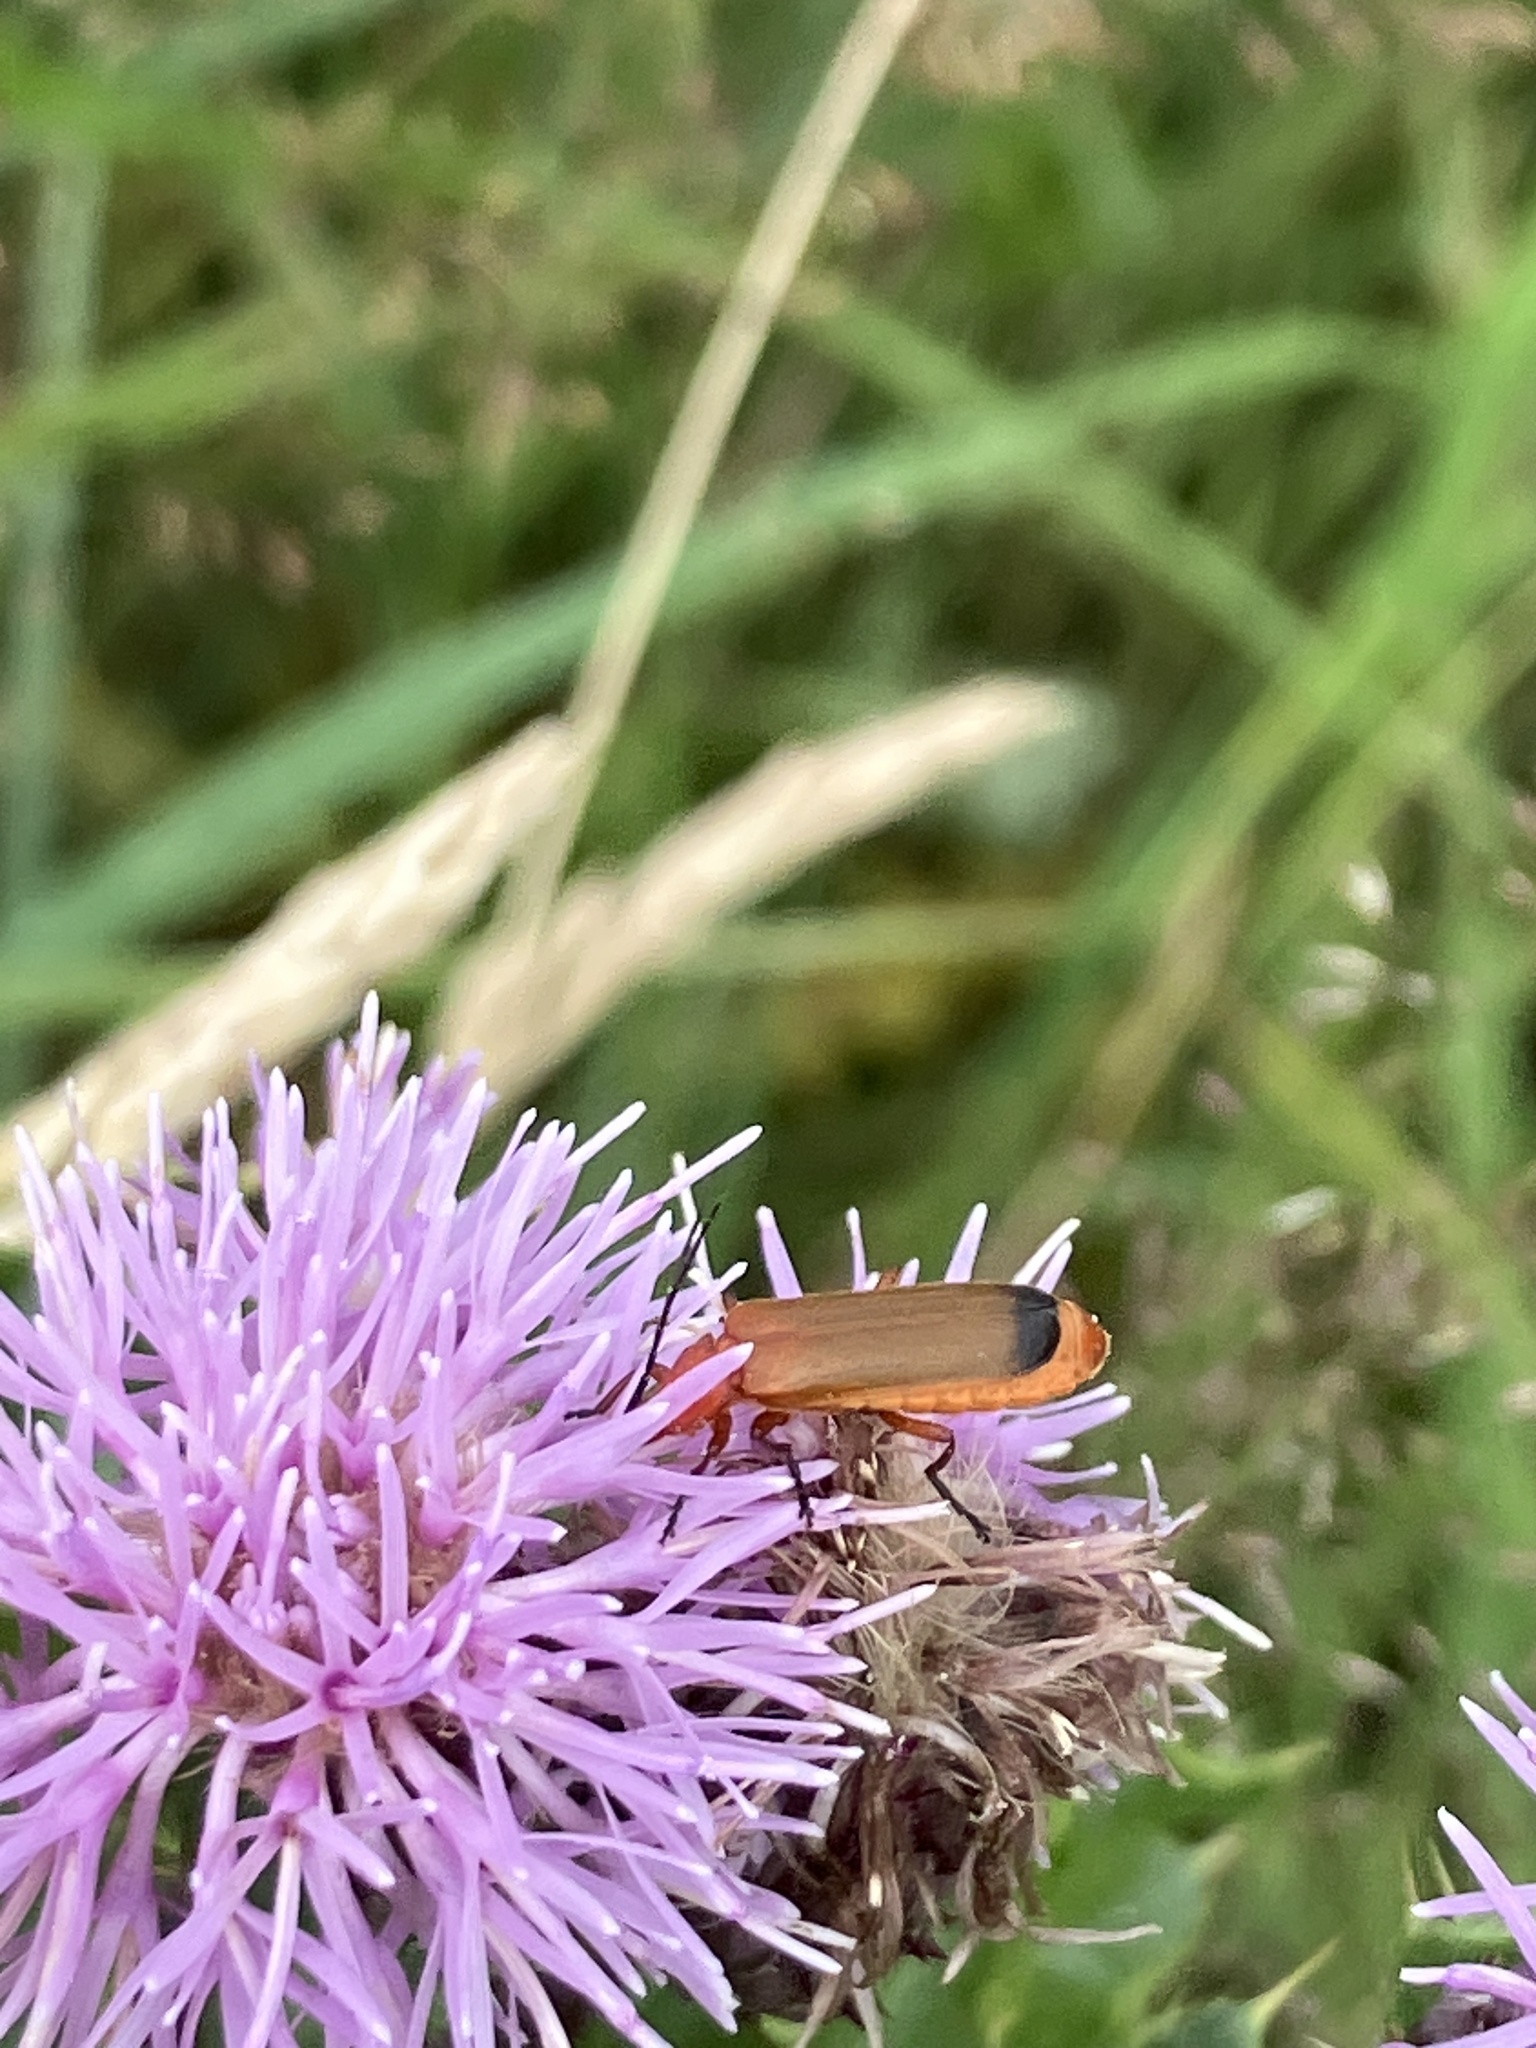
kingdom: Animalia
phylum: Arthropoda
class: Insecta
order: Coleoptera
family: Cantharidae
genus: Rhagonycha
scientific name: Rhagonycha fulva
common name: Common red soldier beetle
